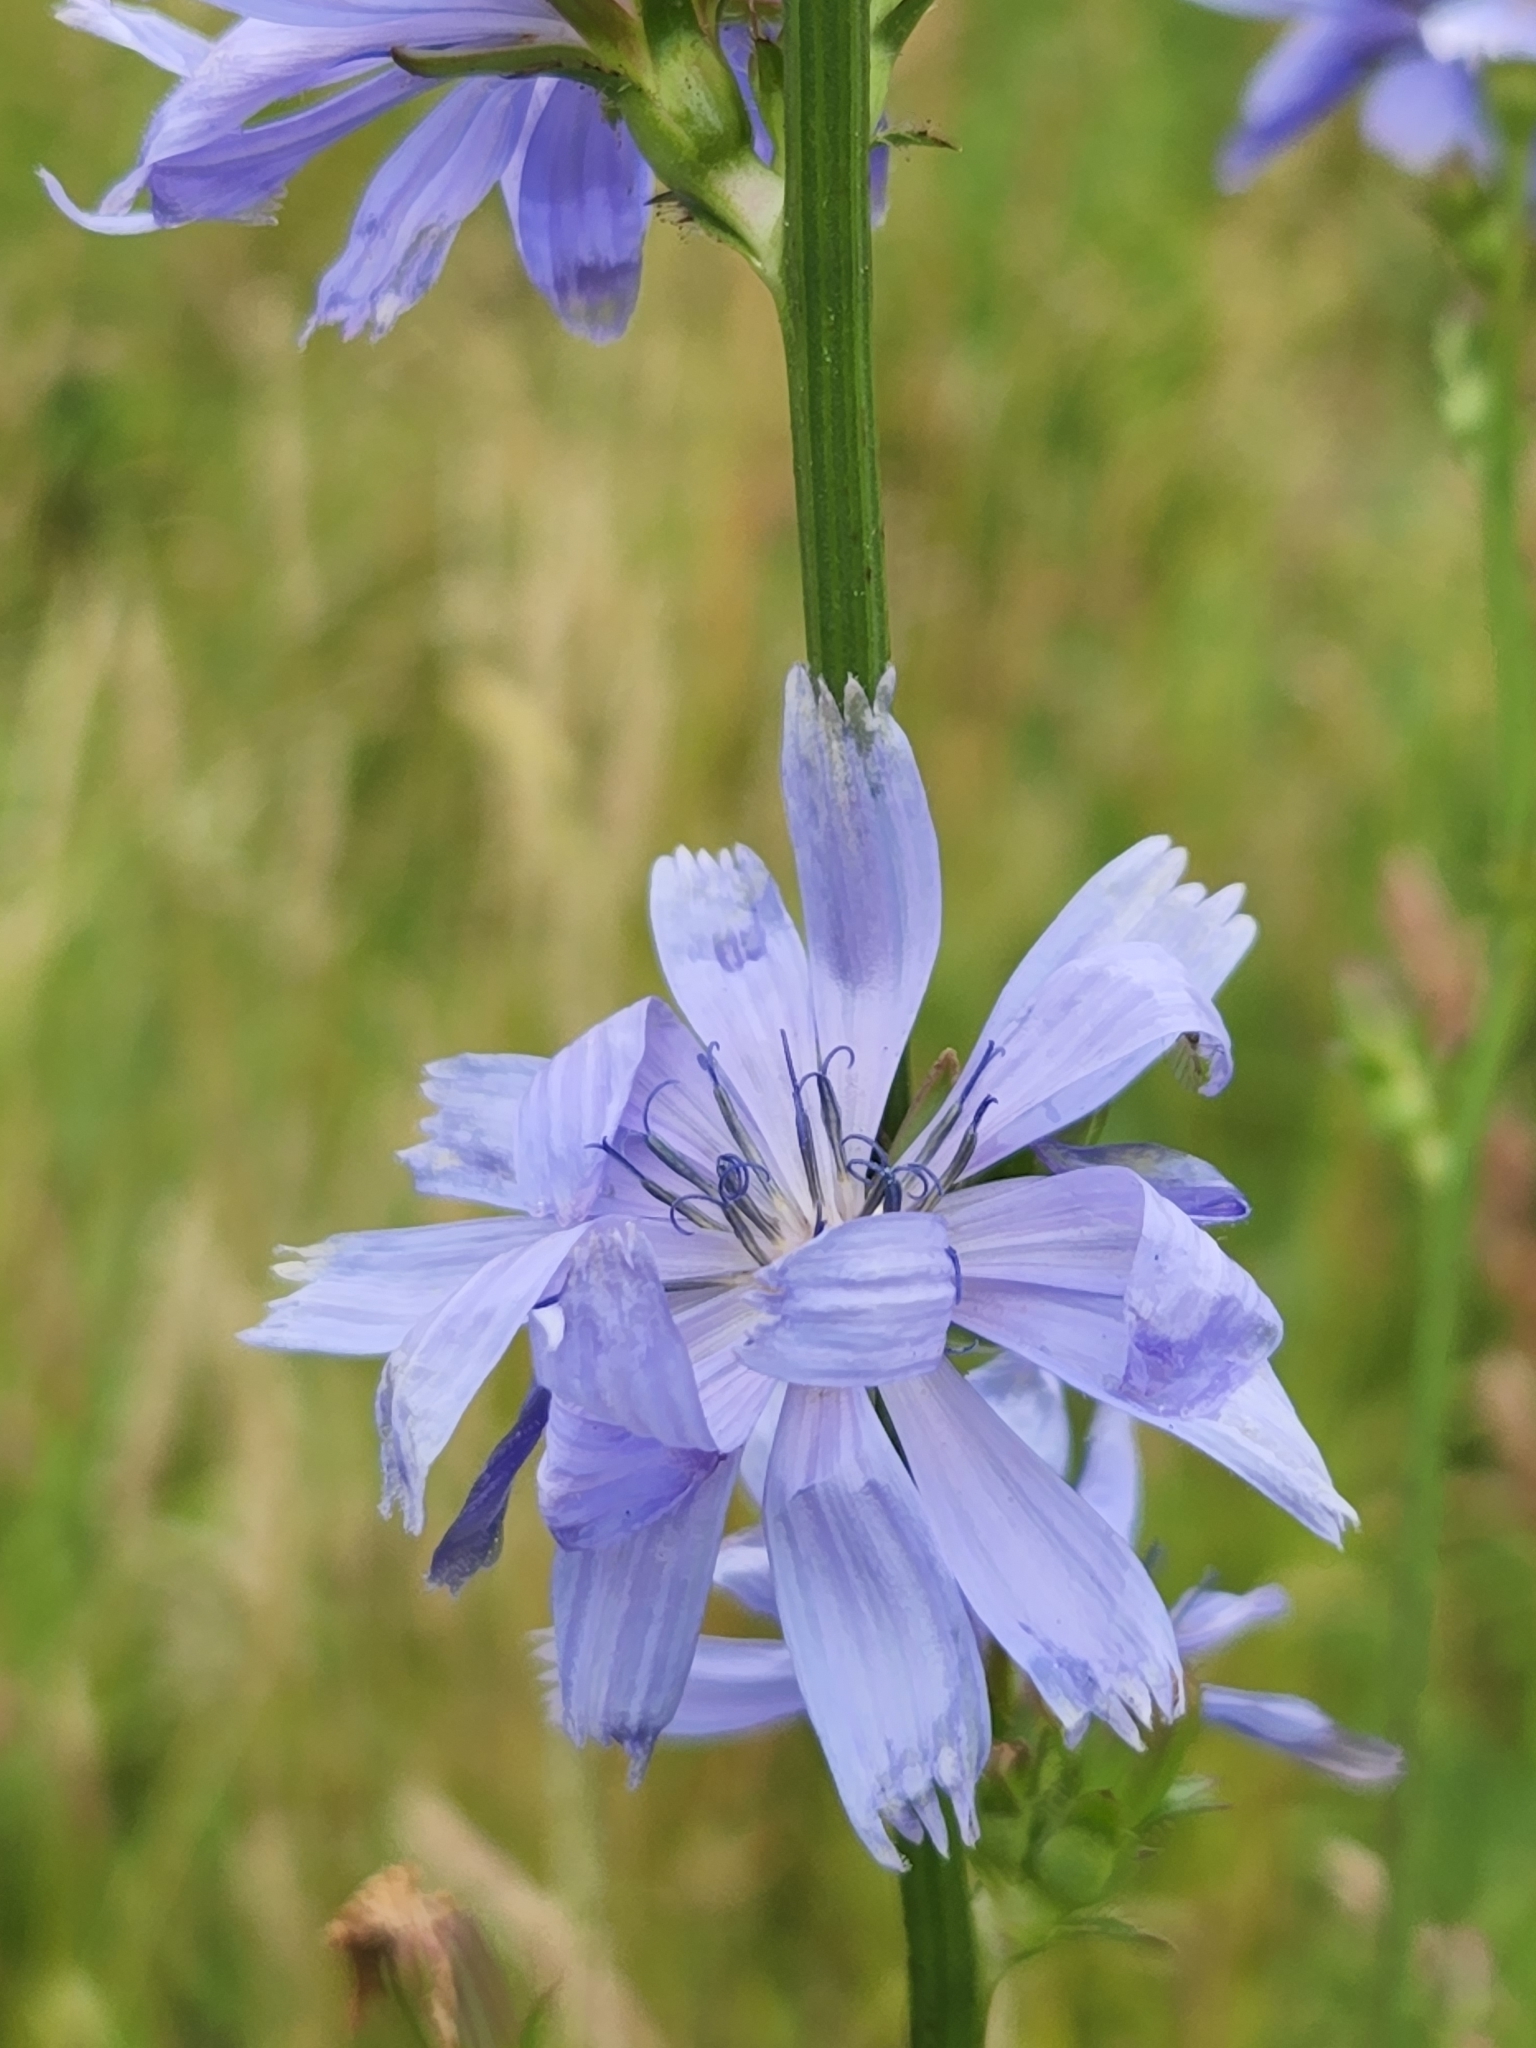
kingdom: Plantae
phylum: Tracheophyta
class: Magnoliopsida
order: Asterales
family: Asteraceae
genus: Cichorium
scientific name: Cichorium intybus
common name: Chicory
